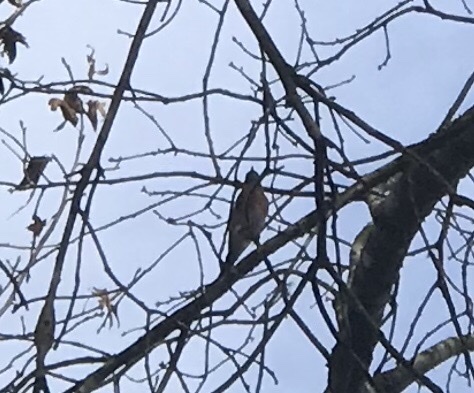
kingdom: Animalia
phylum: Chordata
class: Aves
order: Passeriformes
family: Turdidae
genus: Sialia
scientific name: Sialia sialis
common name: Eastern bluebird
